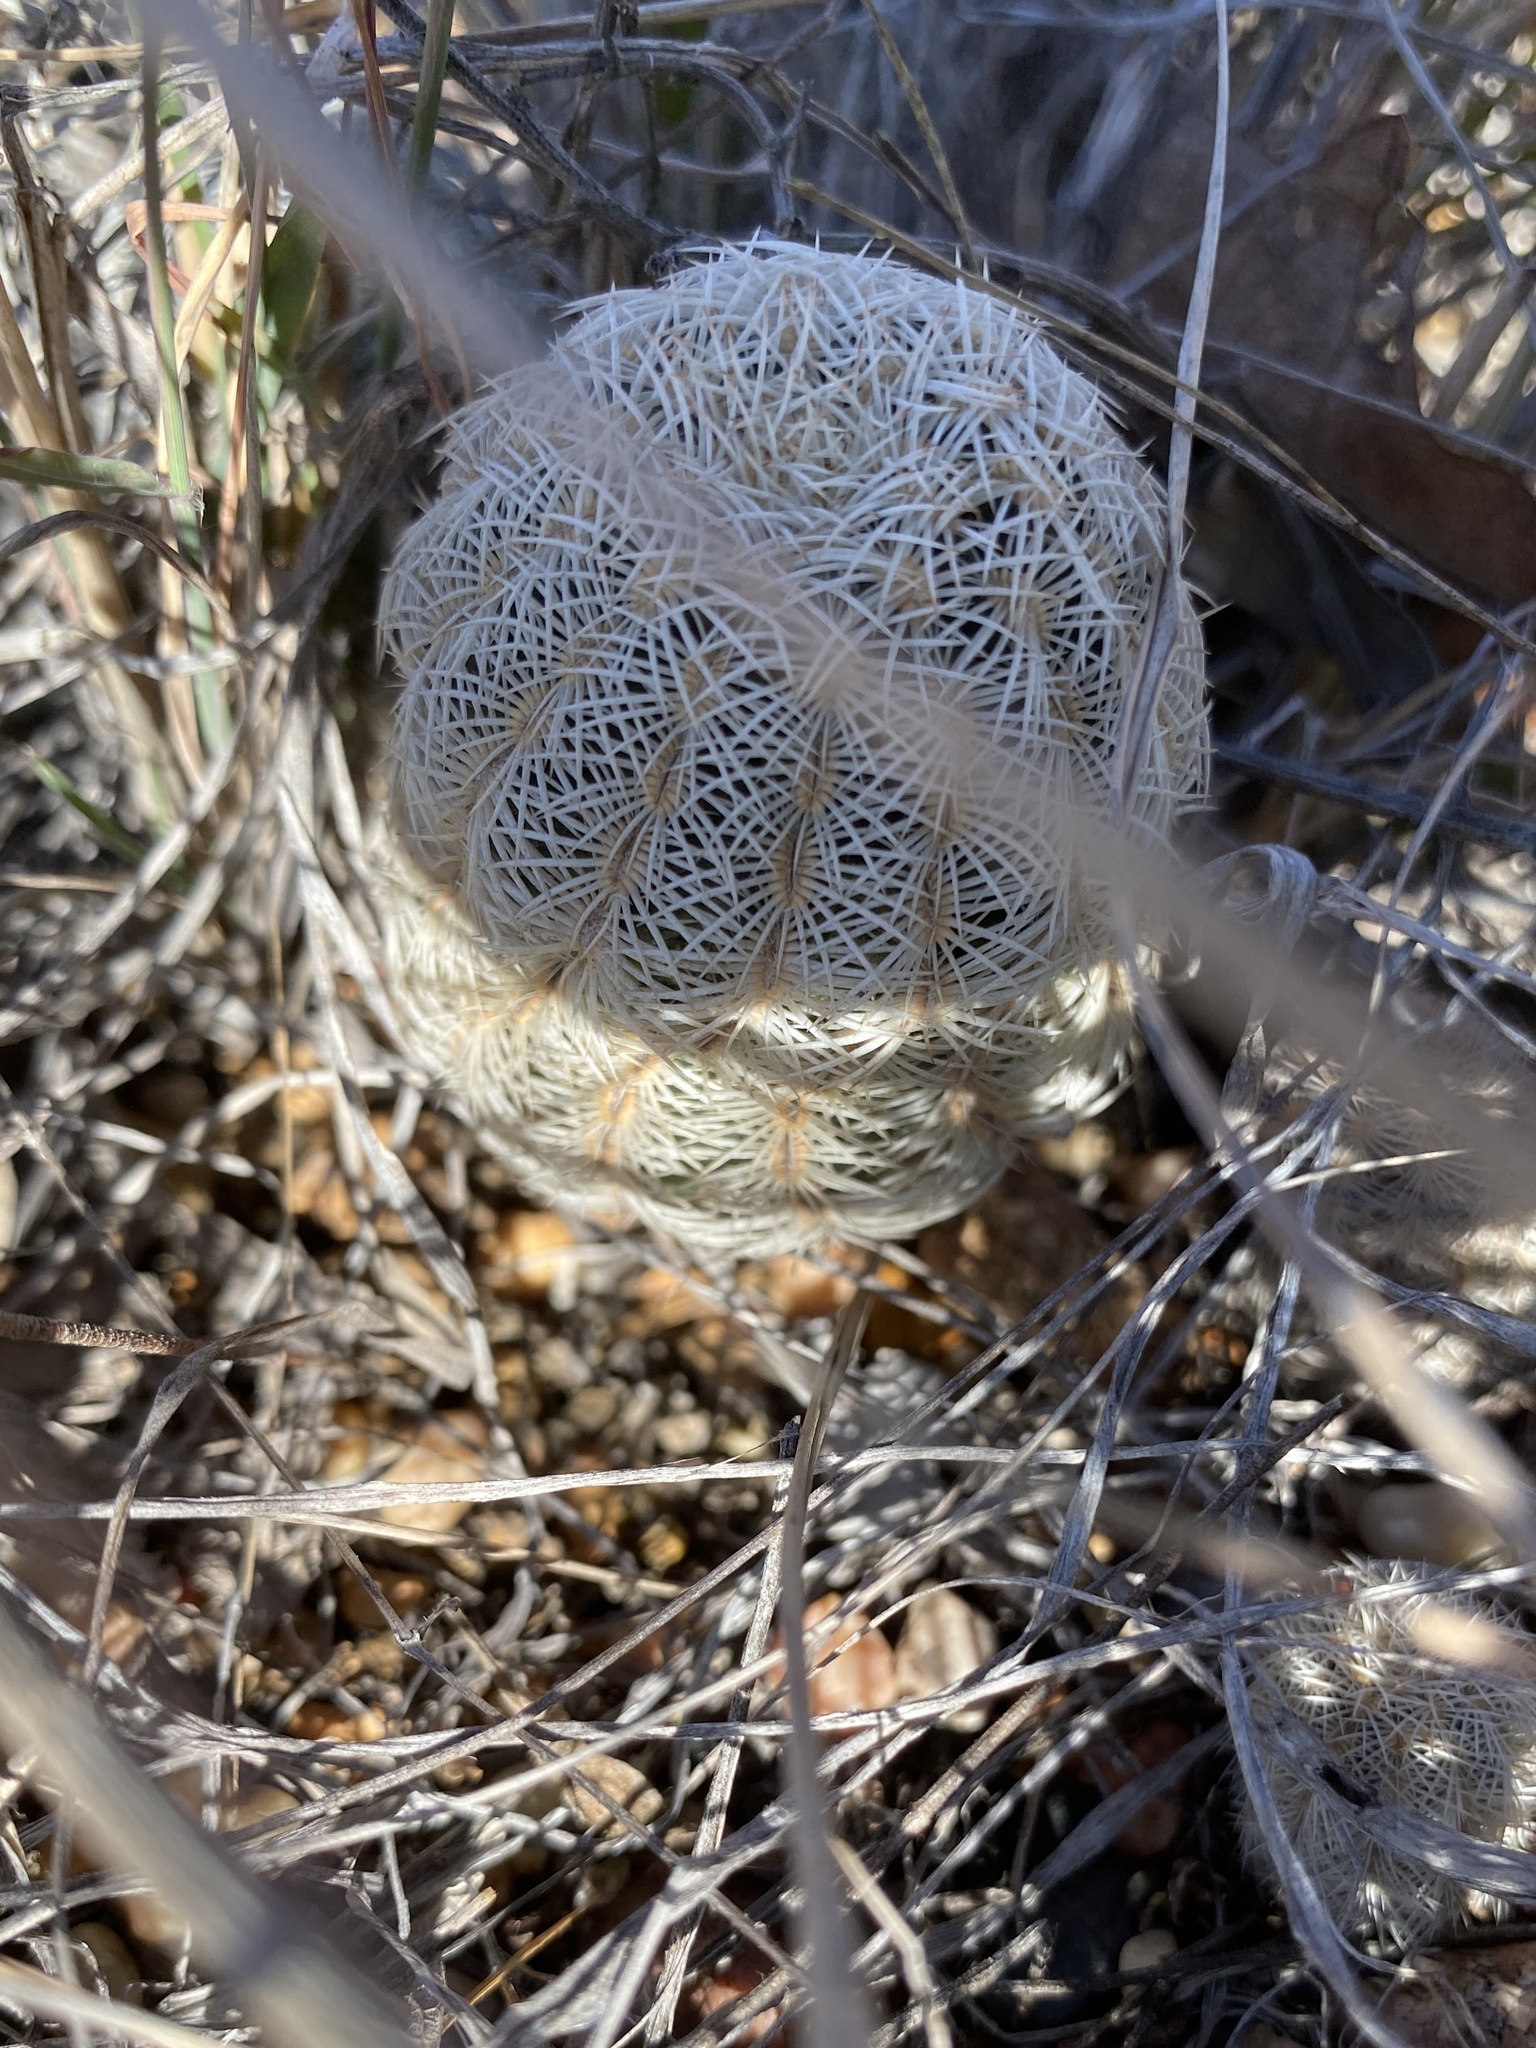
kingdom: Plantae
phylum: Tracheophyta
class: Magnoliopsida
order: Caryophyllales
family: Cactaceae
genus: Echinocereus
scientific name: Echinocereus reichenbachii
